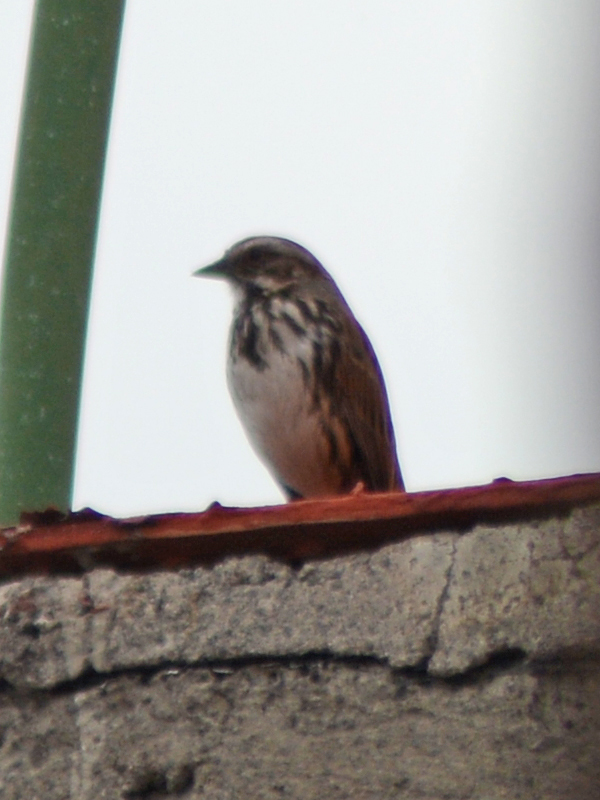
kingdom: Animalia
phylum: Chordata
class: Aves
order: Passeriformes
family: Passerellidae
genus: Melospiza
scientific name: Melospiza melodia
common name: Song sparrow
